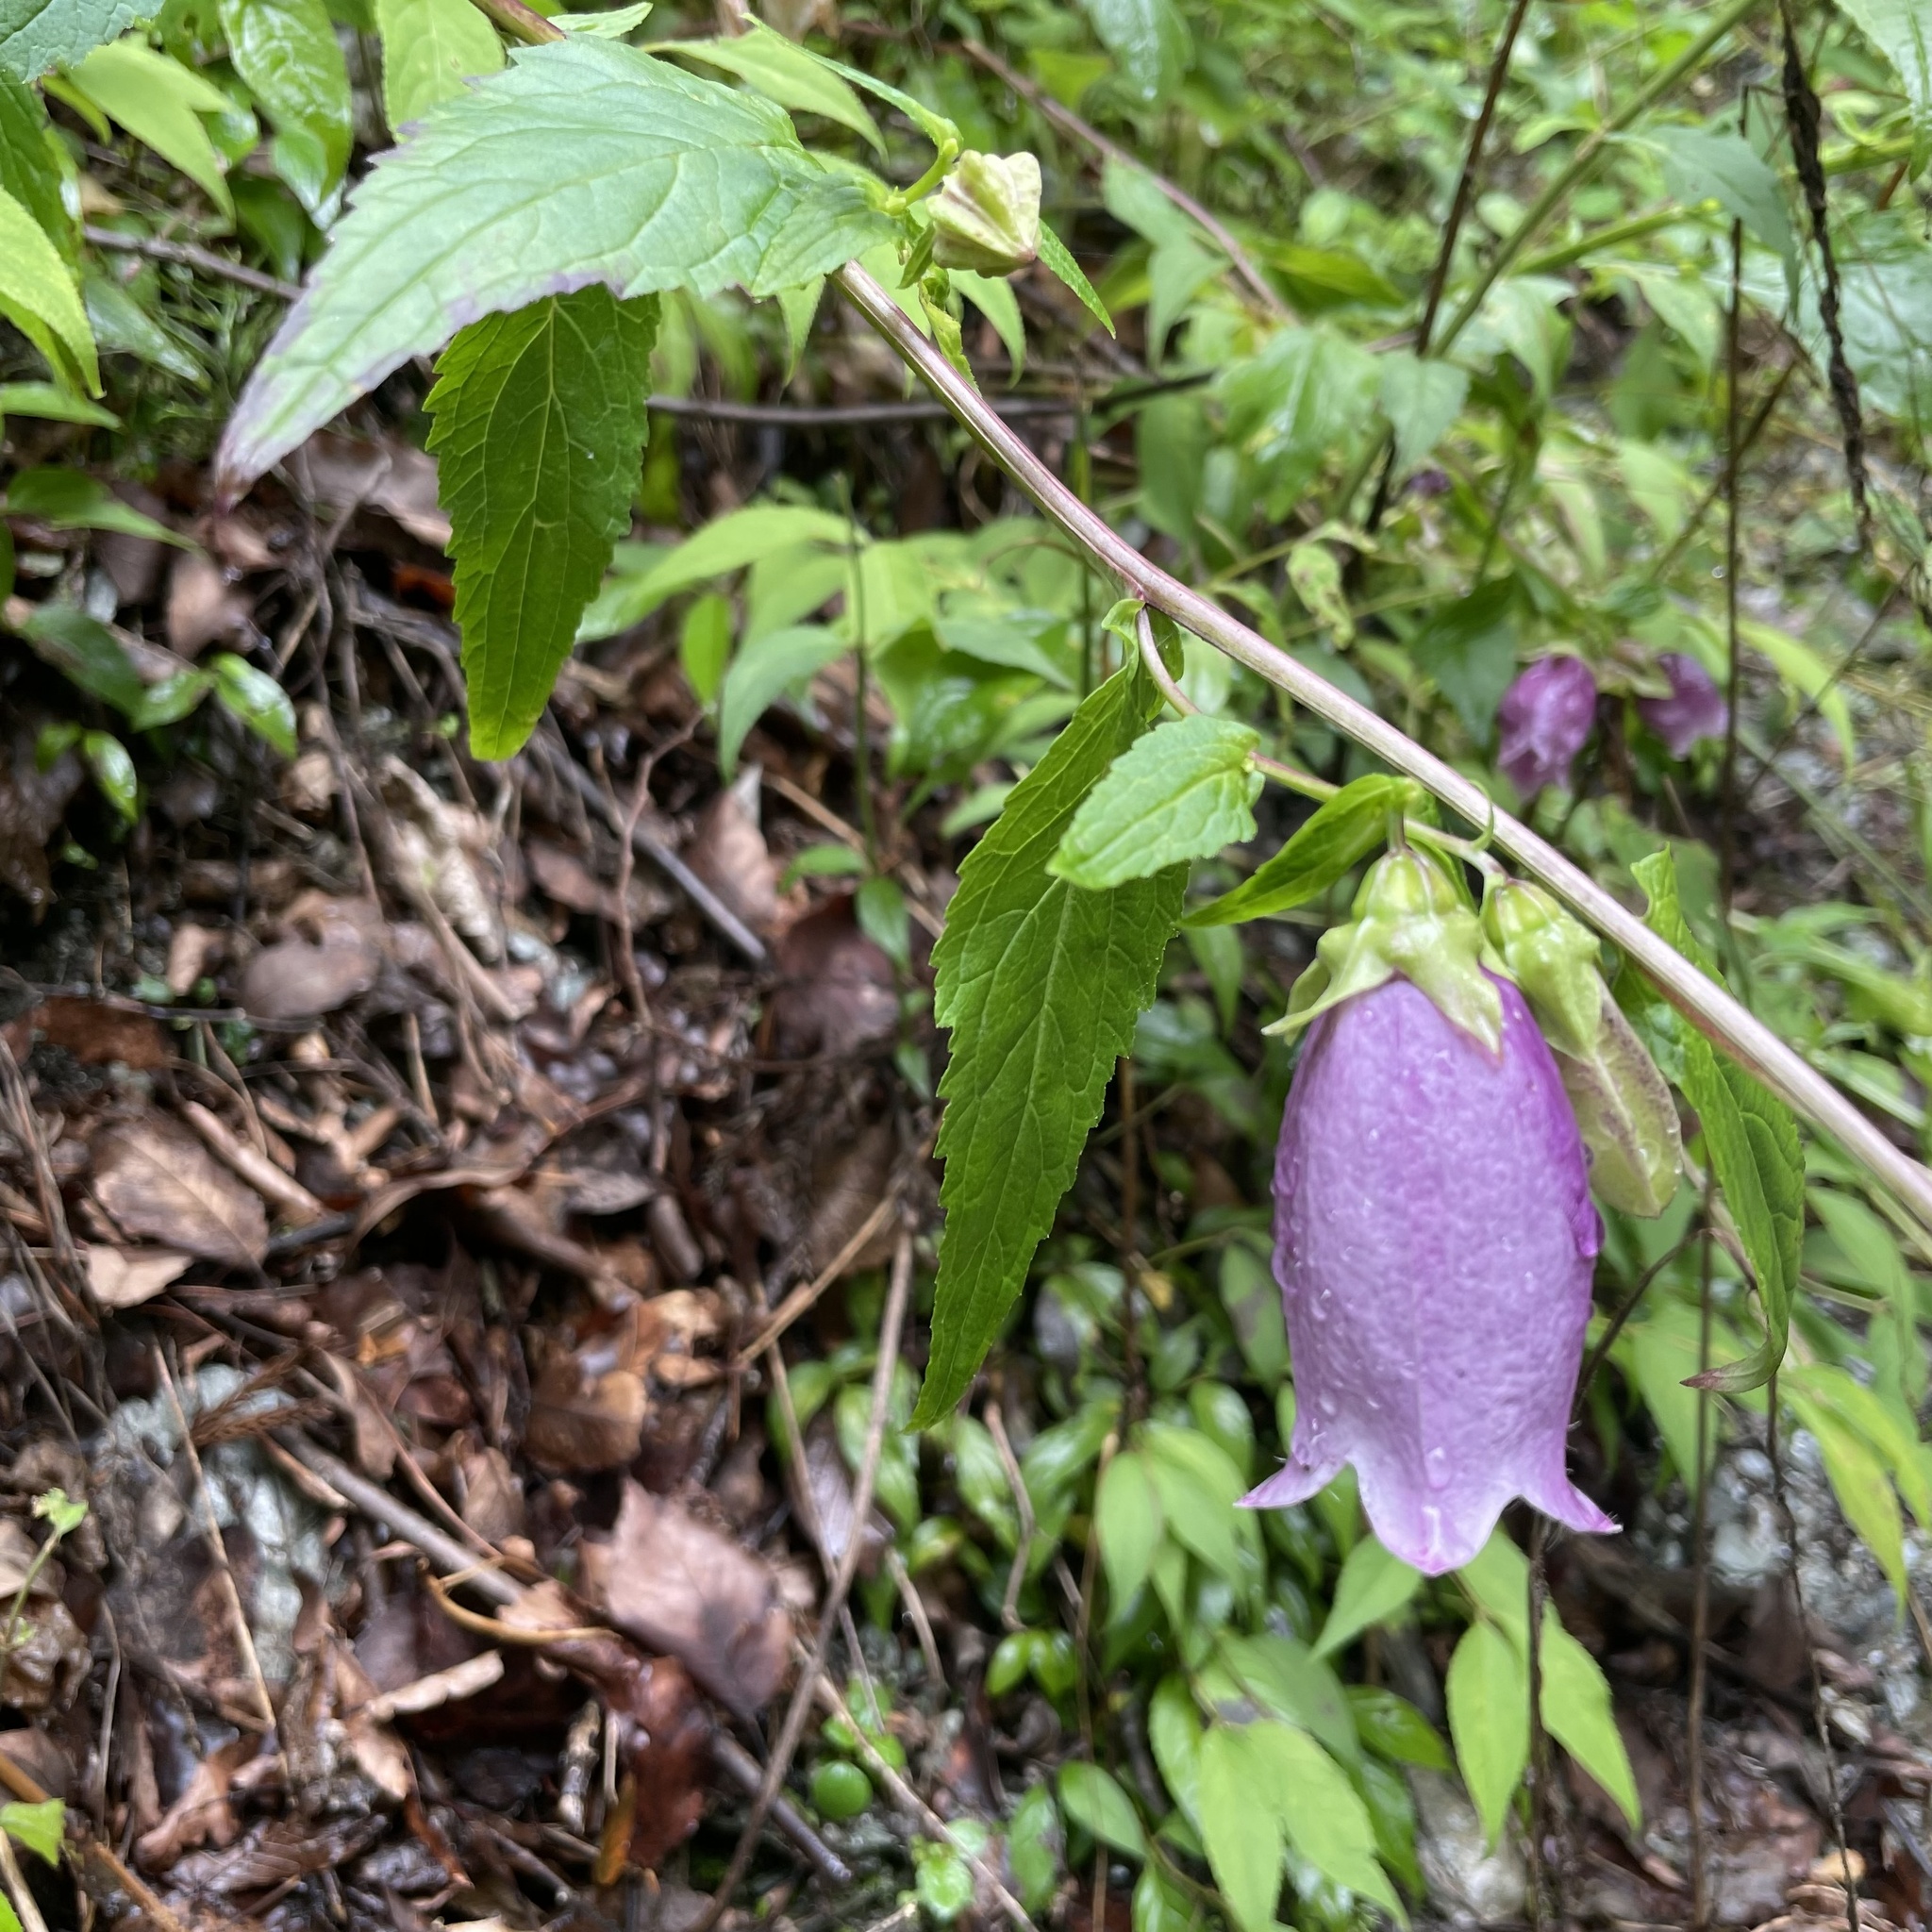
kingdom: Plantae
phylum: Tracheophyta
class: Magnoliopsida
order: Asterales
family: Campanulaceae
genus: Campanula
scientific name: Campanula punctata
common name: Spotted bellflower
